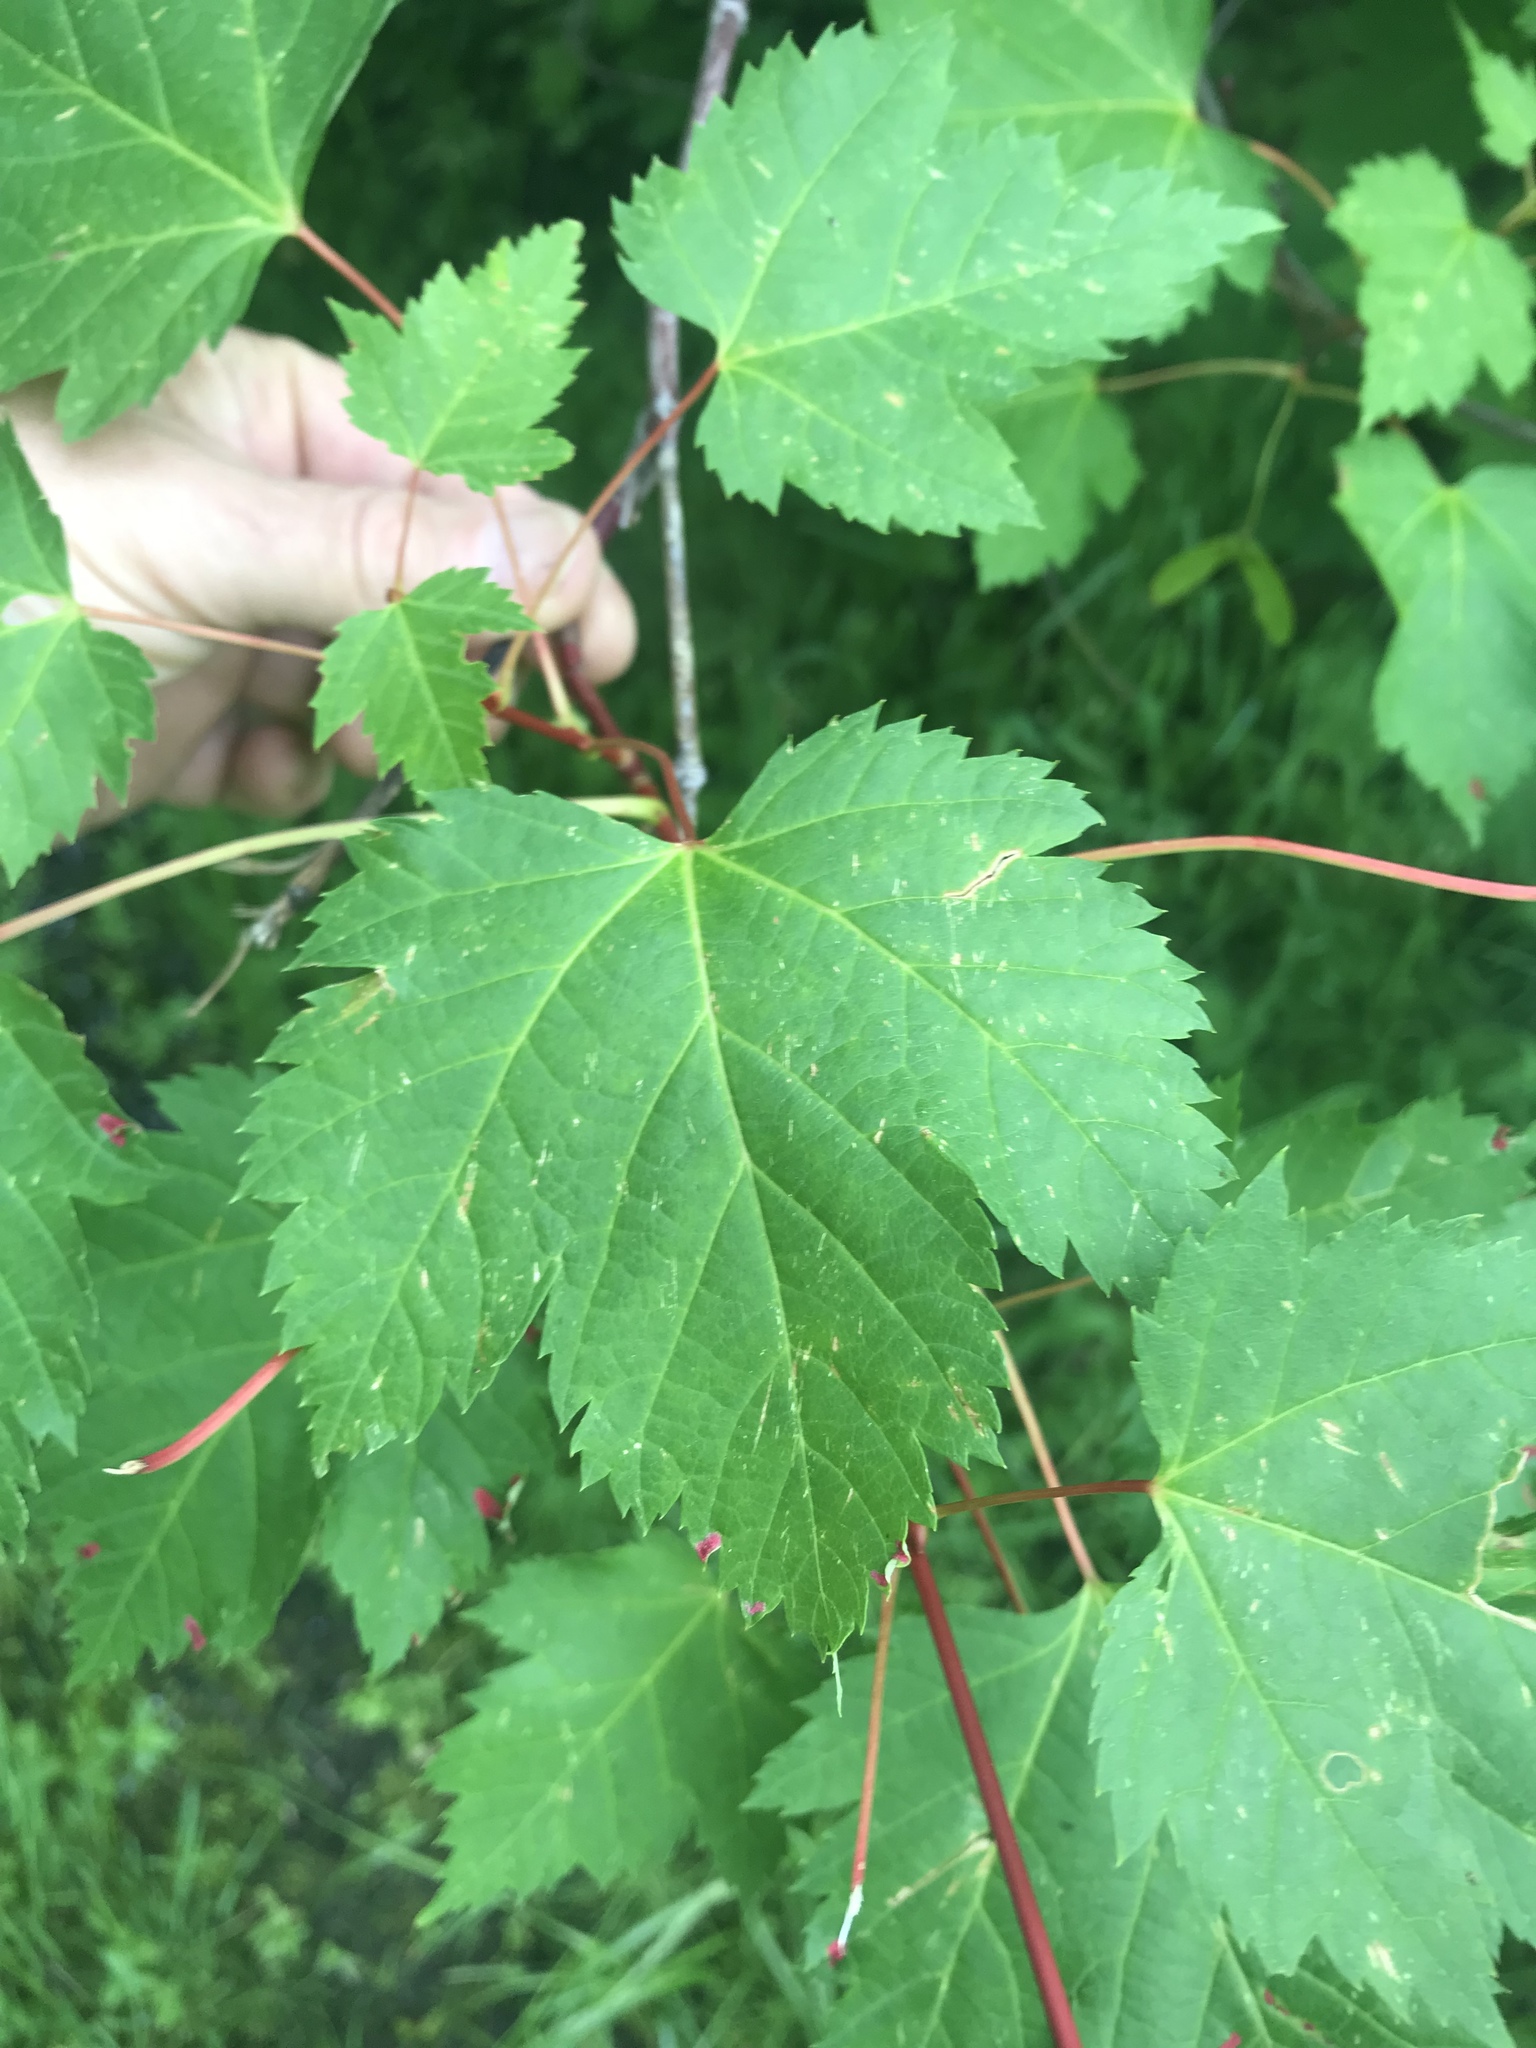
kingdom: Plantae
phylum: Tracheophyta
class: Magnoliopsida
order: Sapindales
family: Sapindaceae
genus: Acer
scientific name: Acer glabrum
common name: Rocky mountain maple
